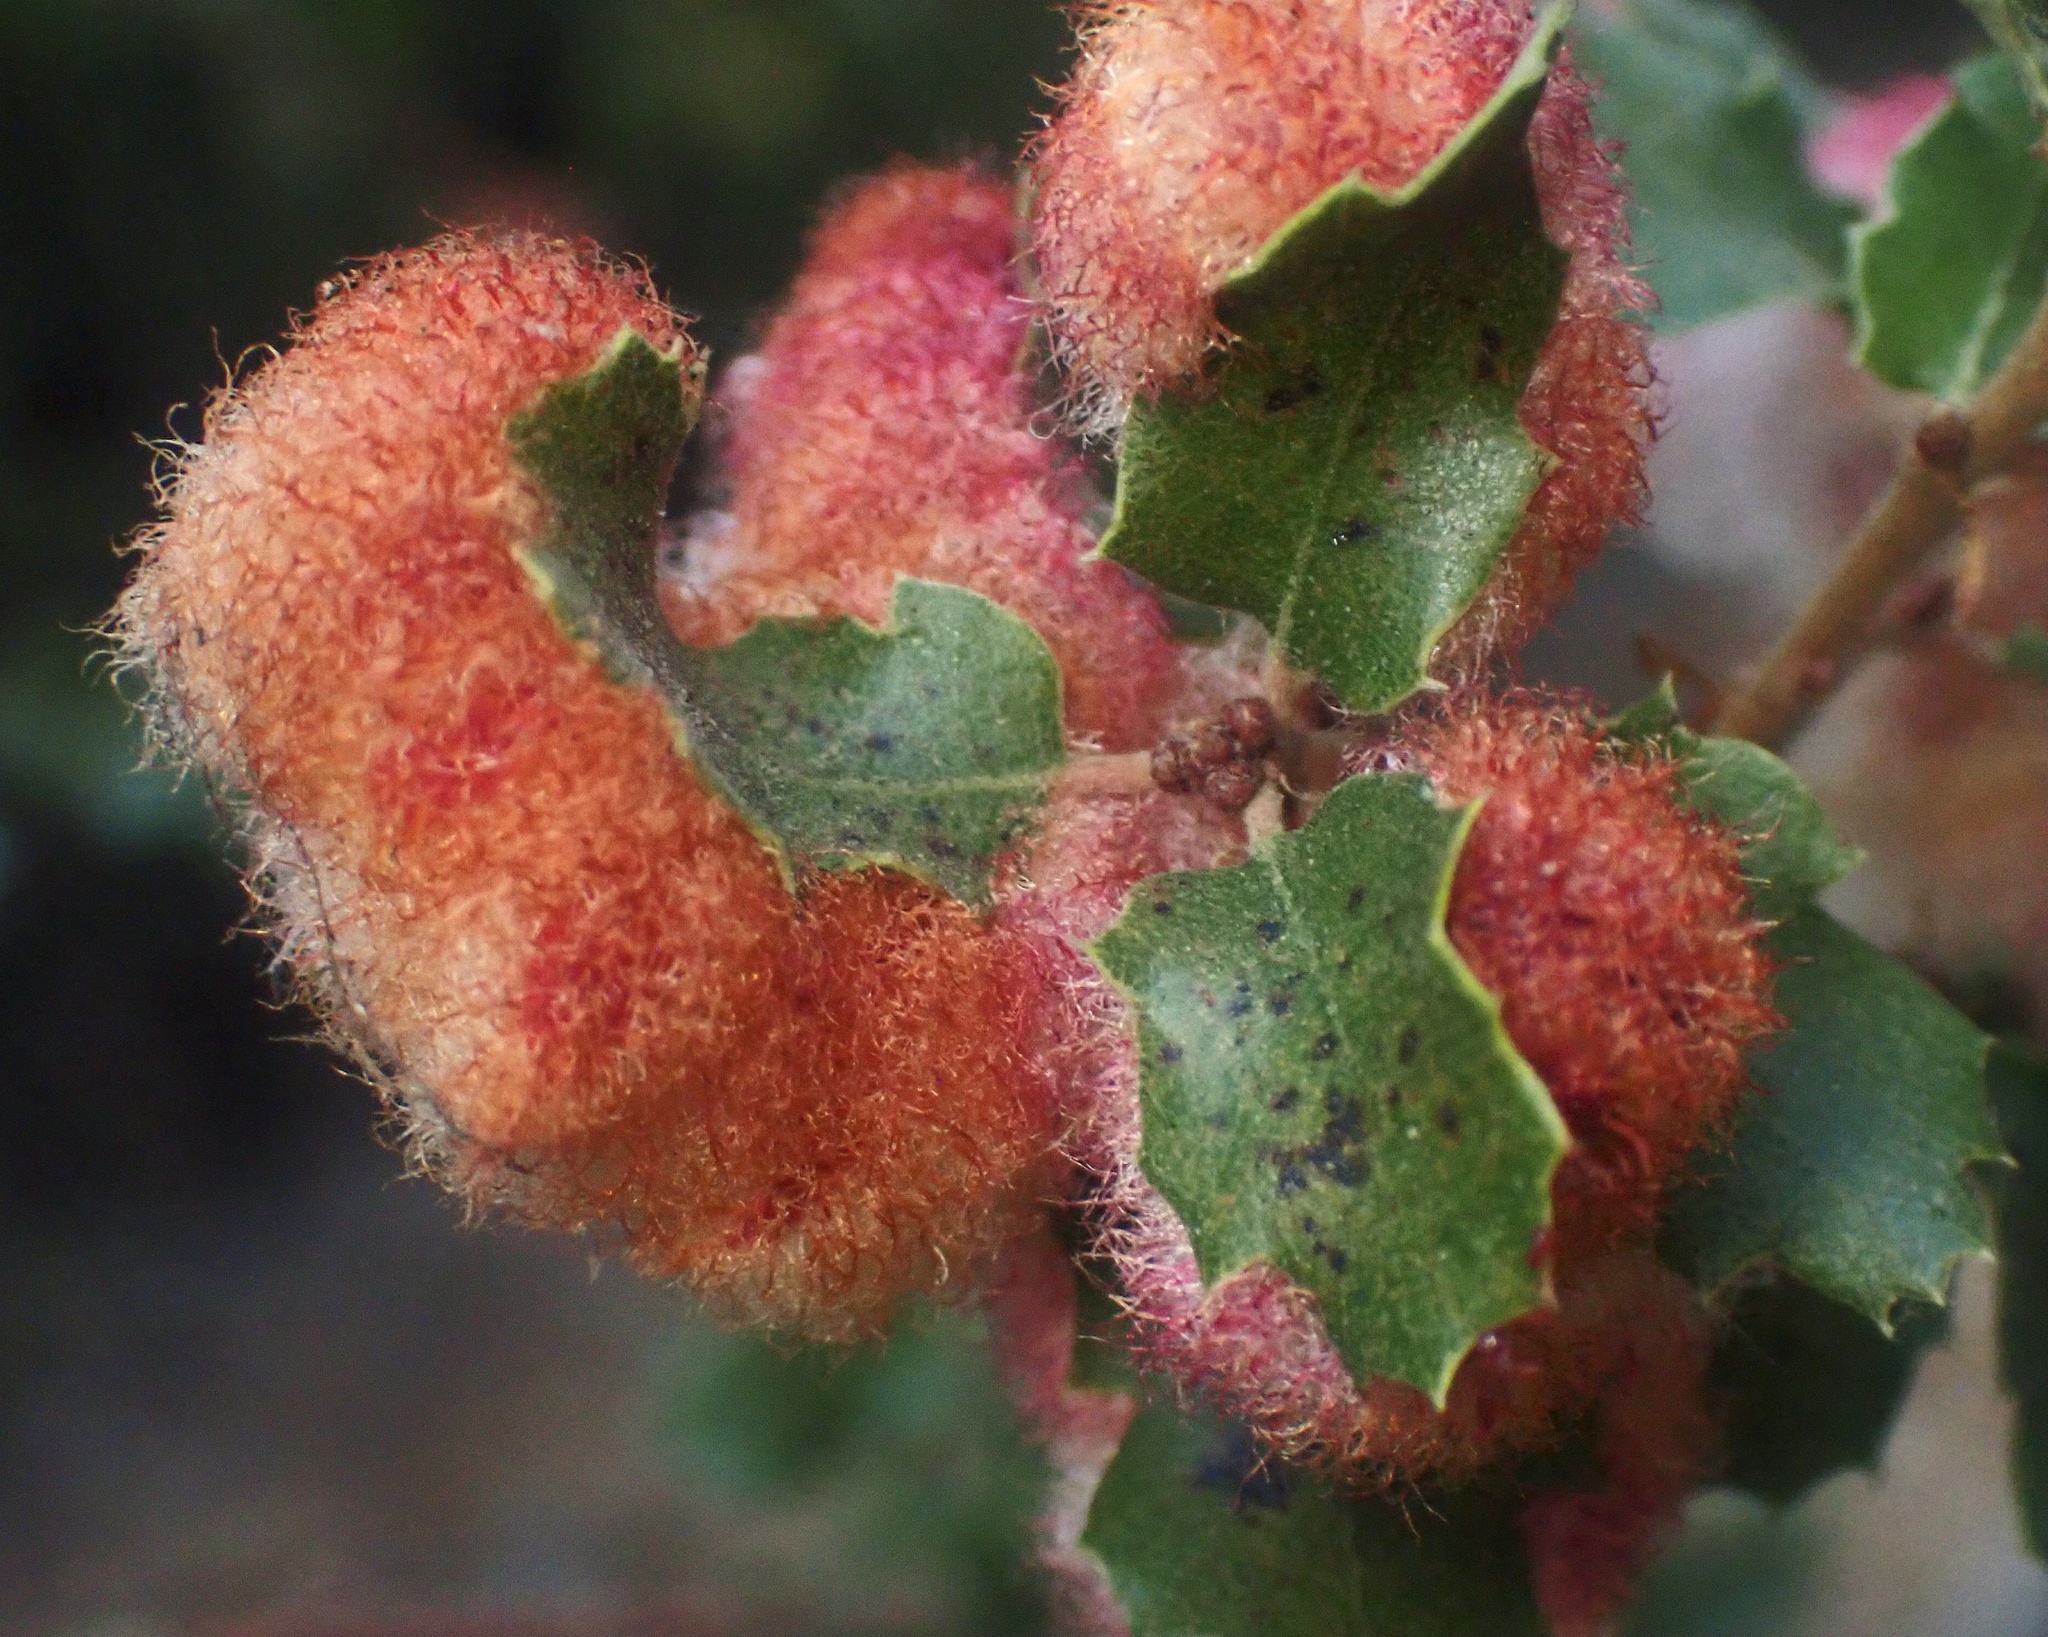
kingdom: Animalia
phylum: Arthropoda
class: Insecta
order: Hymenoptera
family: Cynipidae
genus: Andricus
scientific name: Andricus
